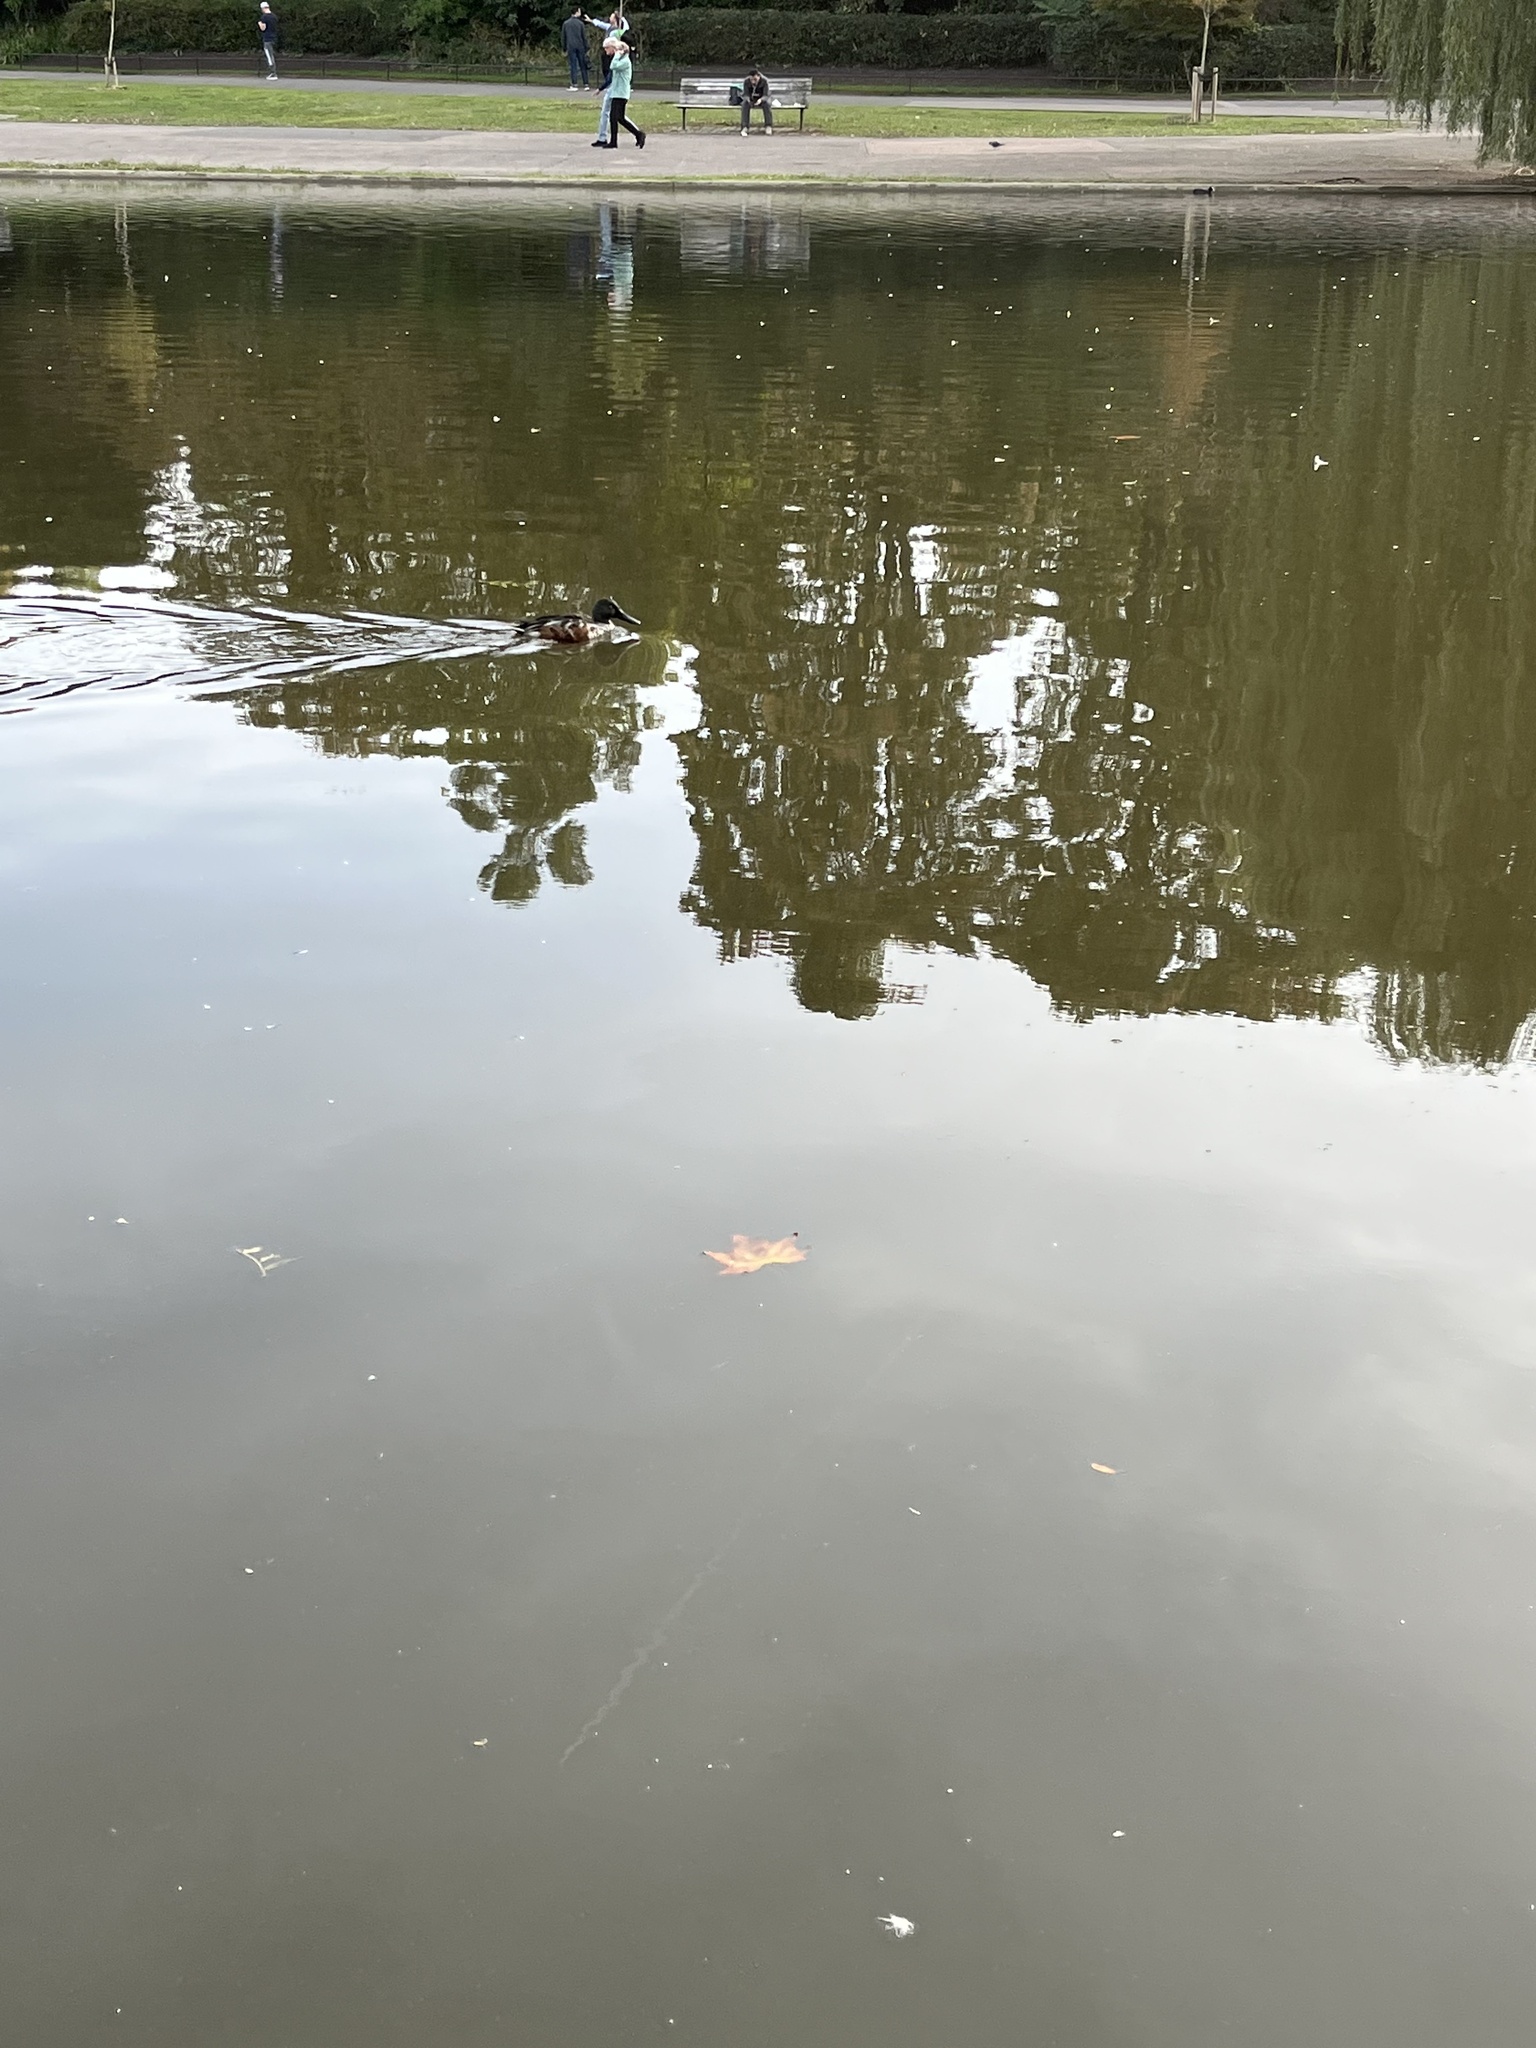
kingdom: Animalia
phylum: Chordata
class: Aves
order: Anseriformes
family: Anatidae
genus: Spatula
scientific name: Spatula clypeata
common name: Northern shoveler
